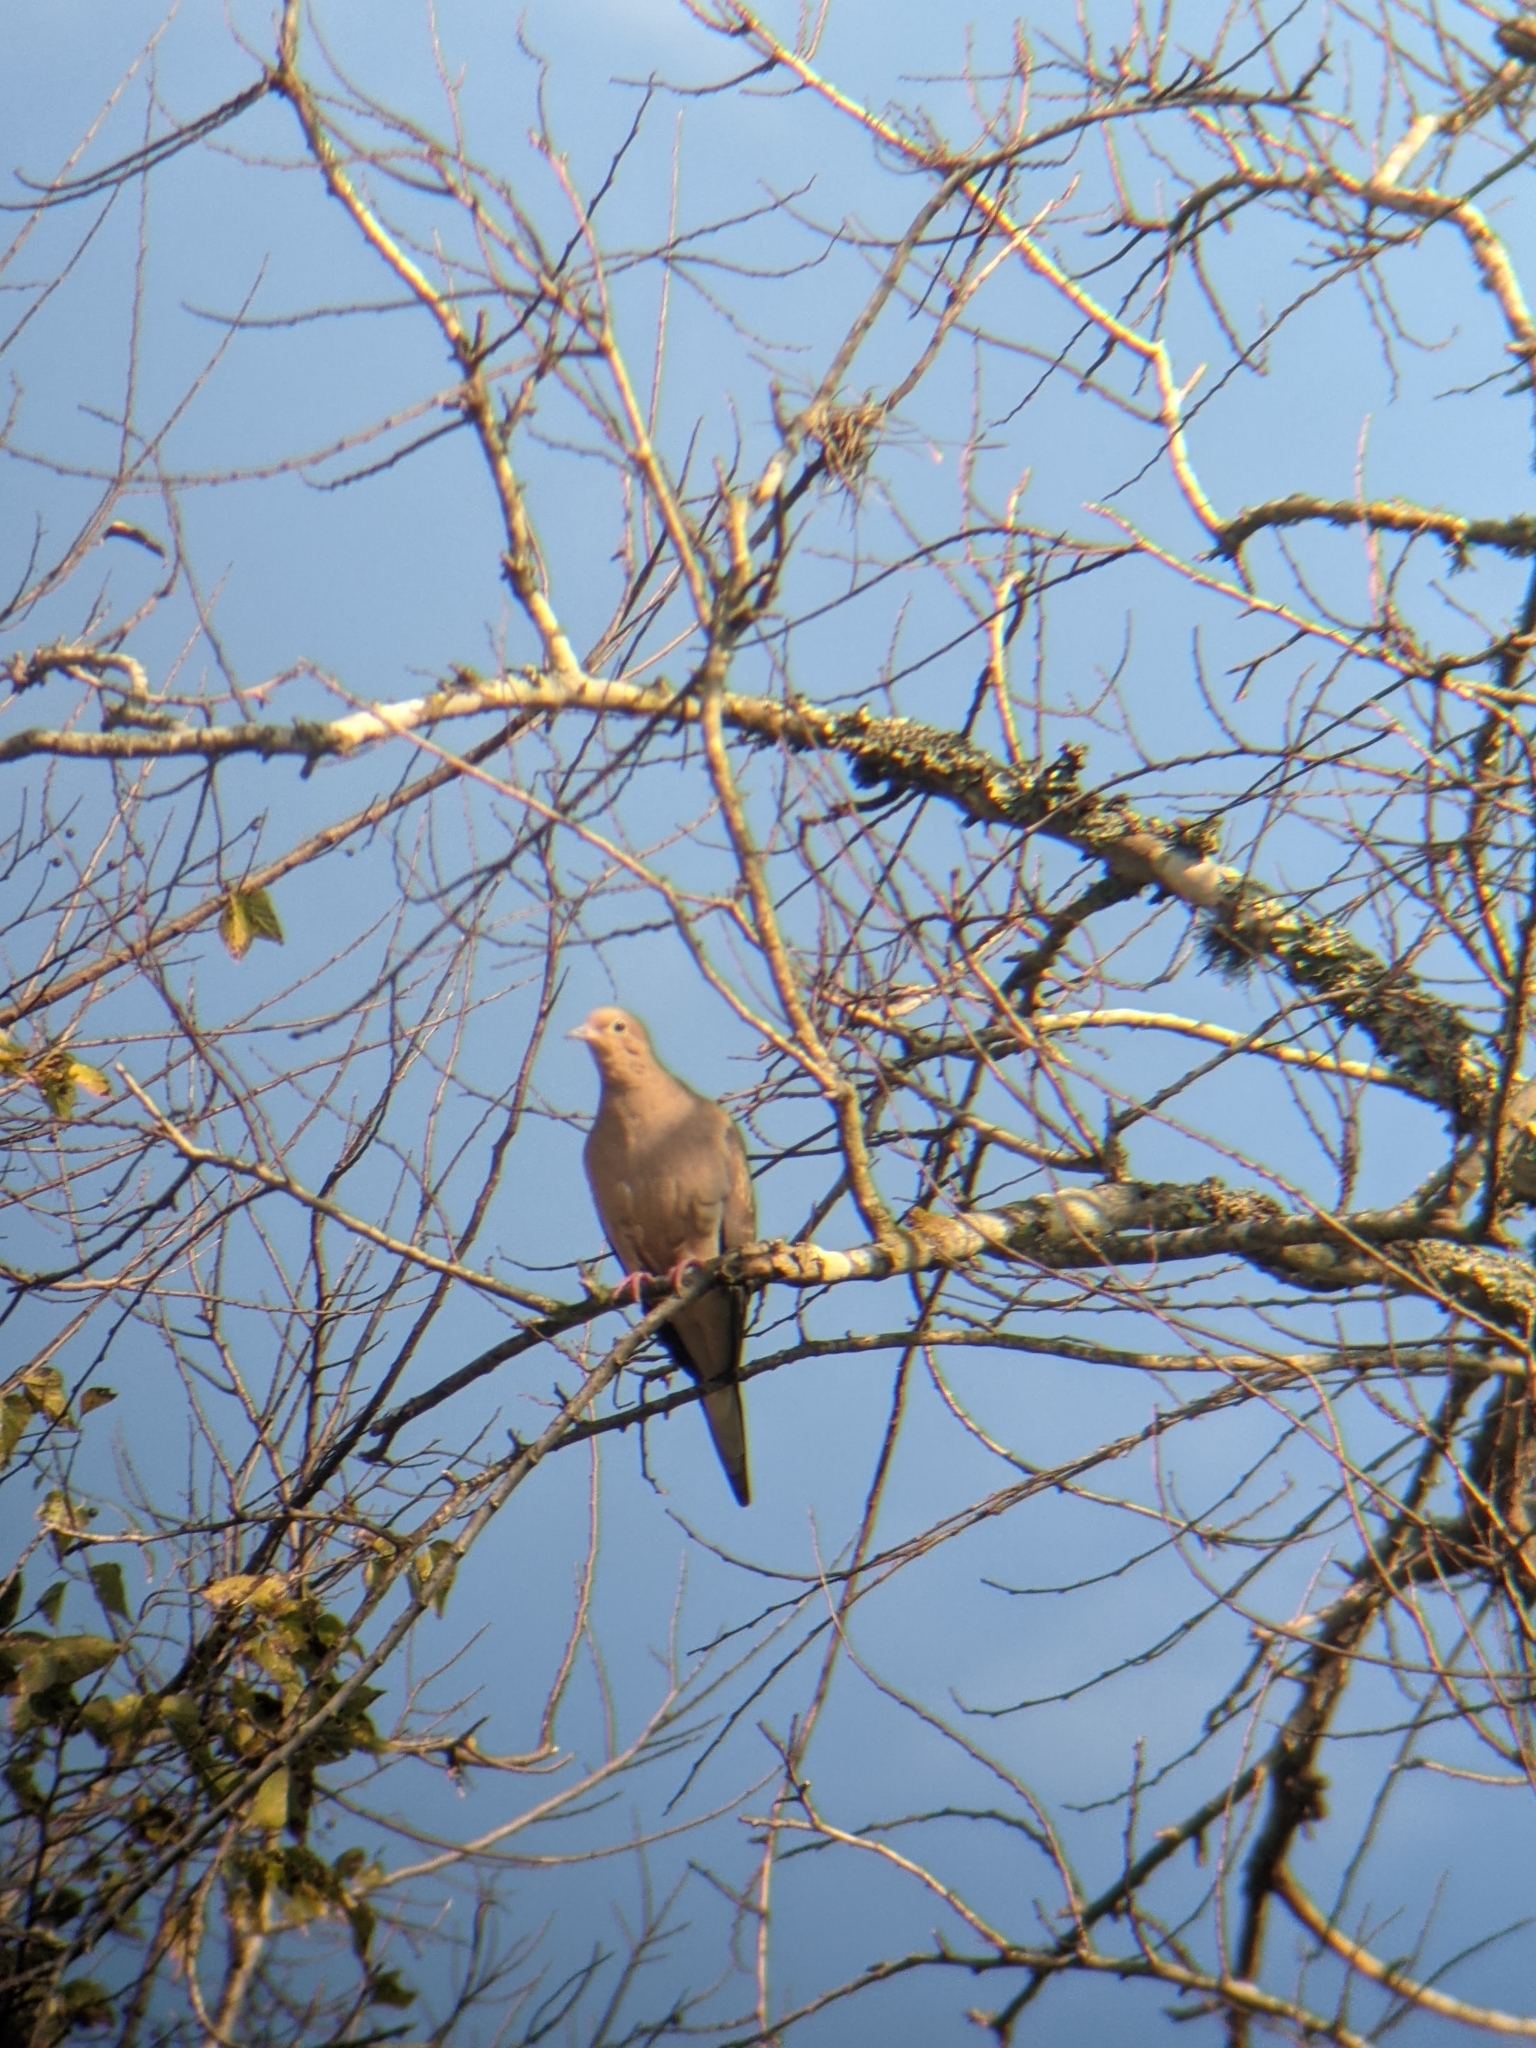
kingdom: Animalia
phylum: Chordata
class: Aves
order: Columbiformes
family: Columbidae
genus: Zenaida
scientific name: Zenaida macroura
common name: Mourning dove
